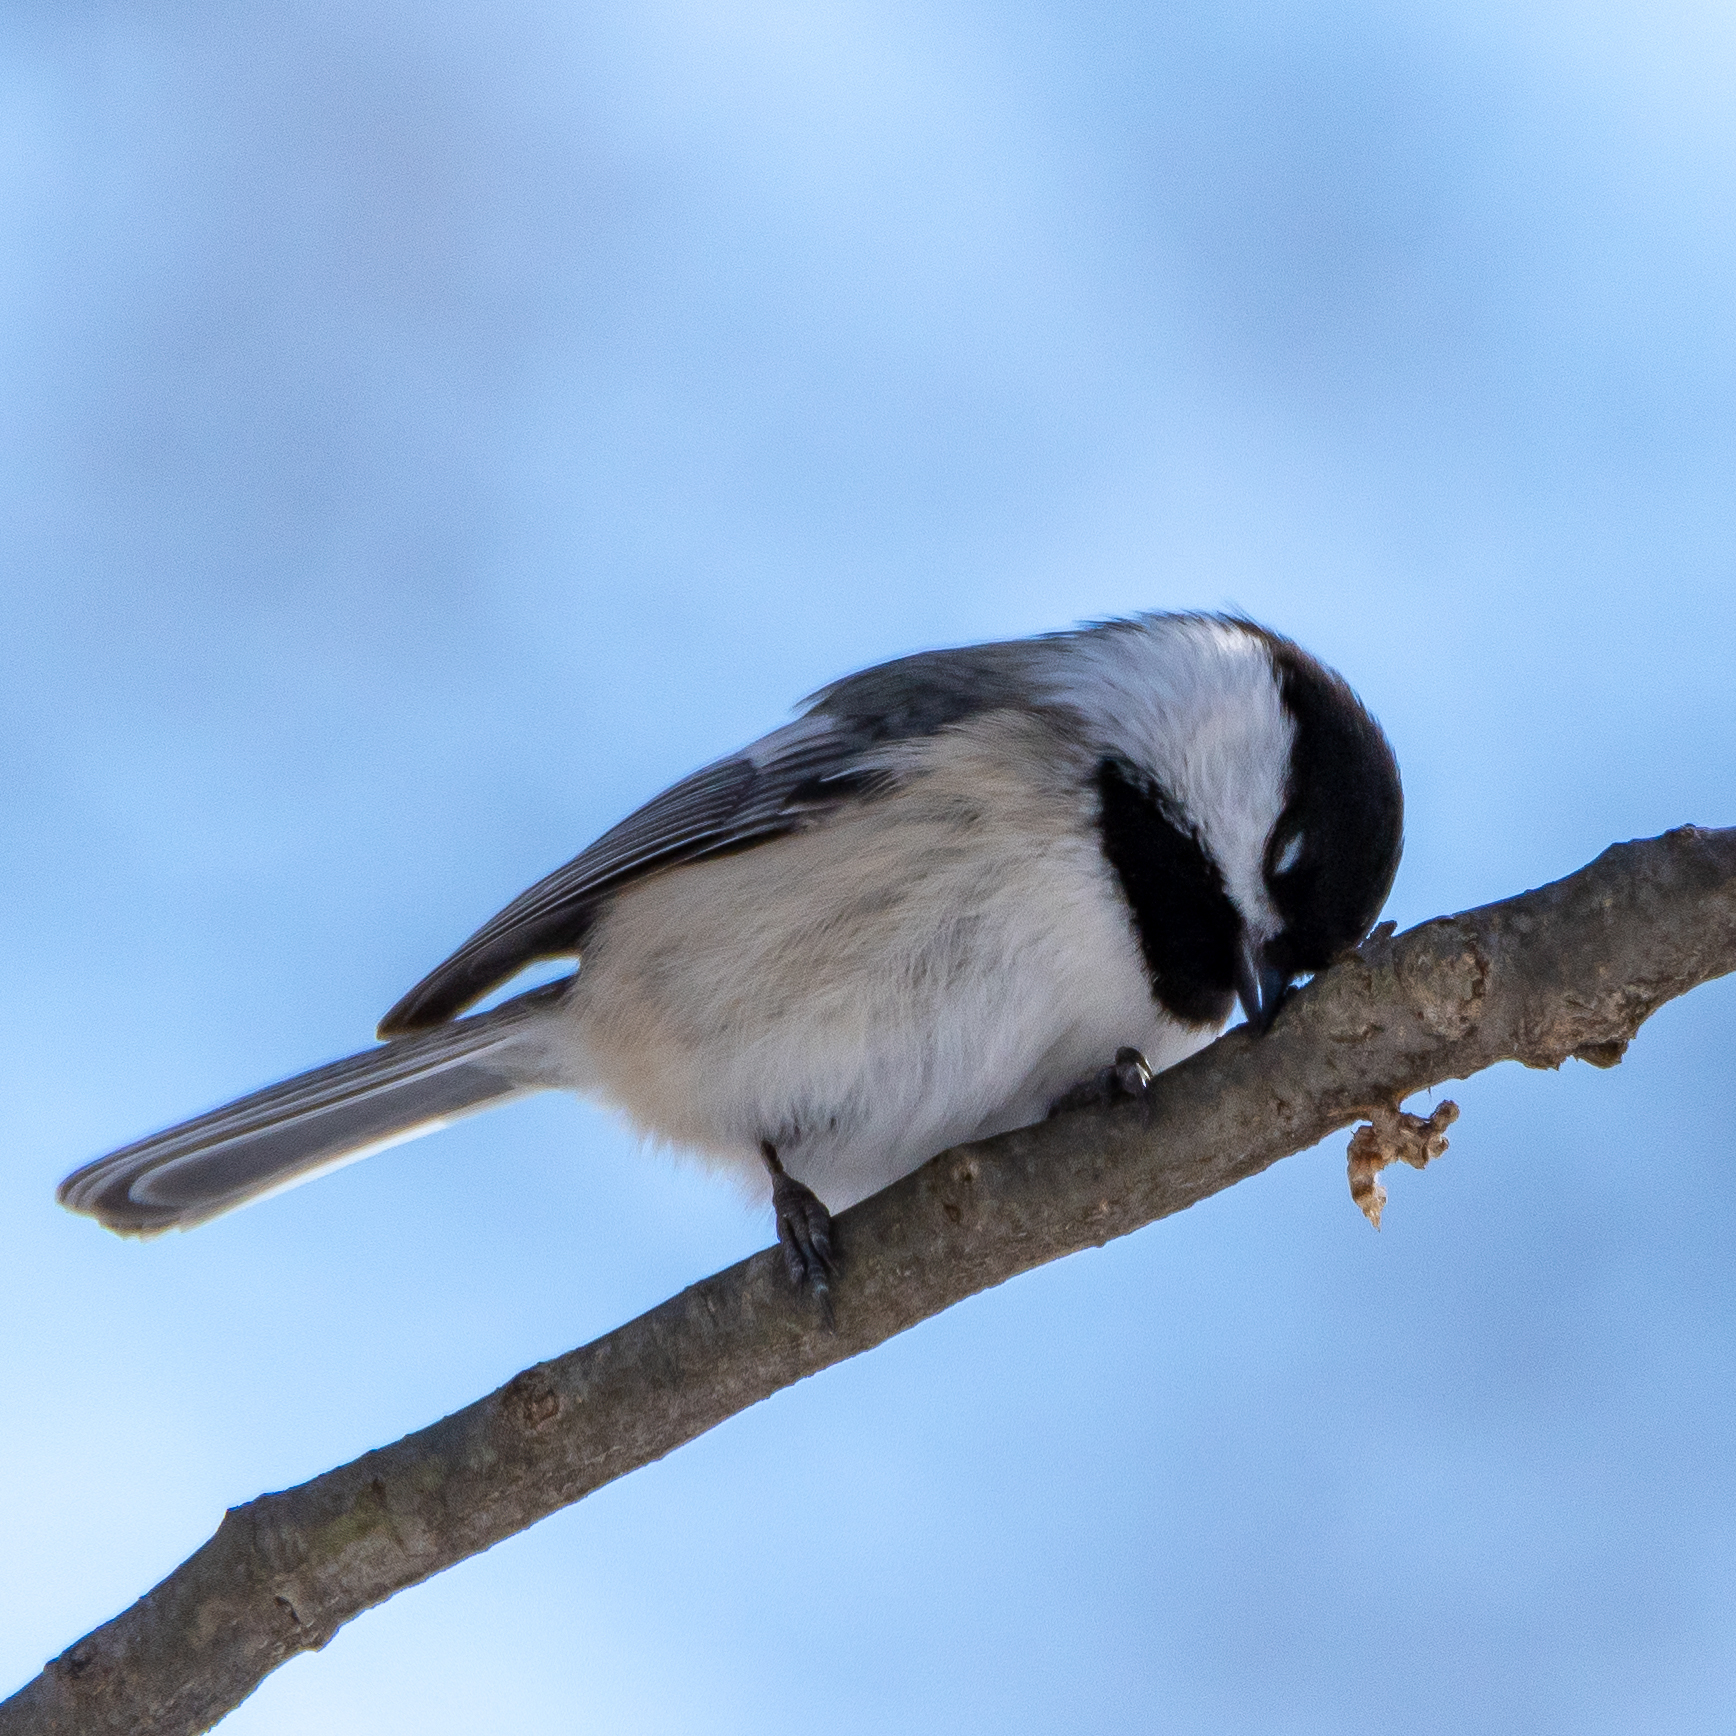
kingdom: Animalia
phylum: Chordata
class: Aves
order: Passeriformes
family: Paridae
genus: Poecile
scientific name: Poecile atricapillus
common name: Black-capped chickadee
